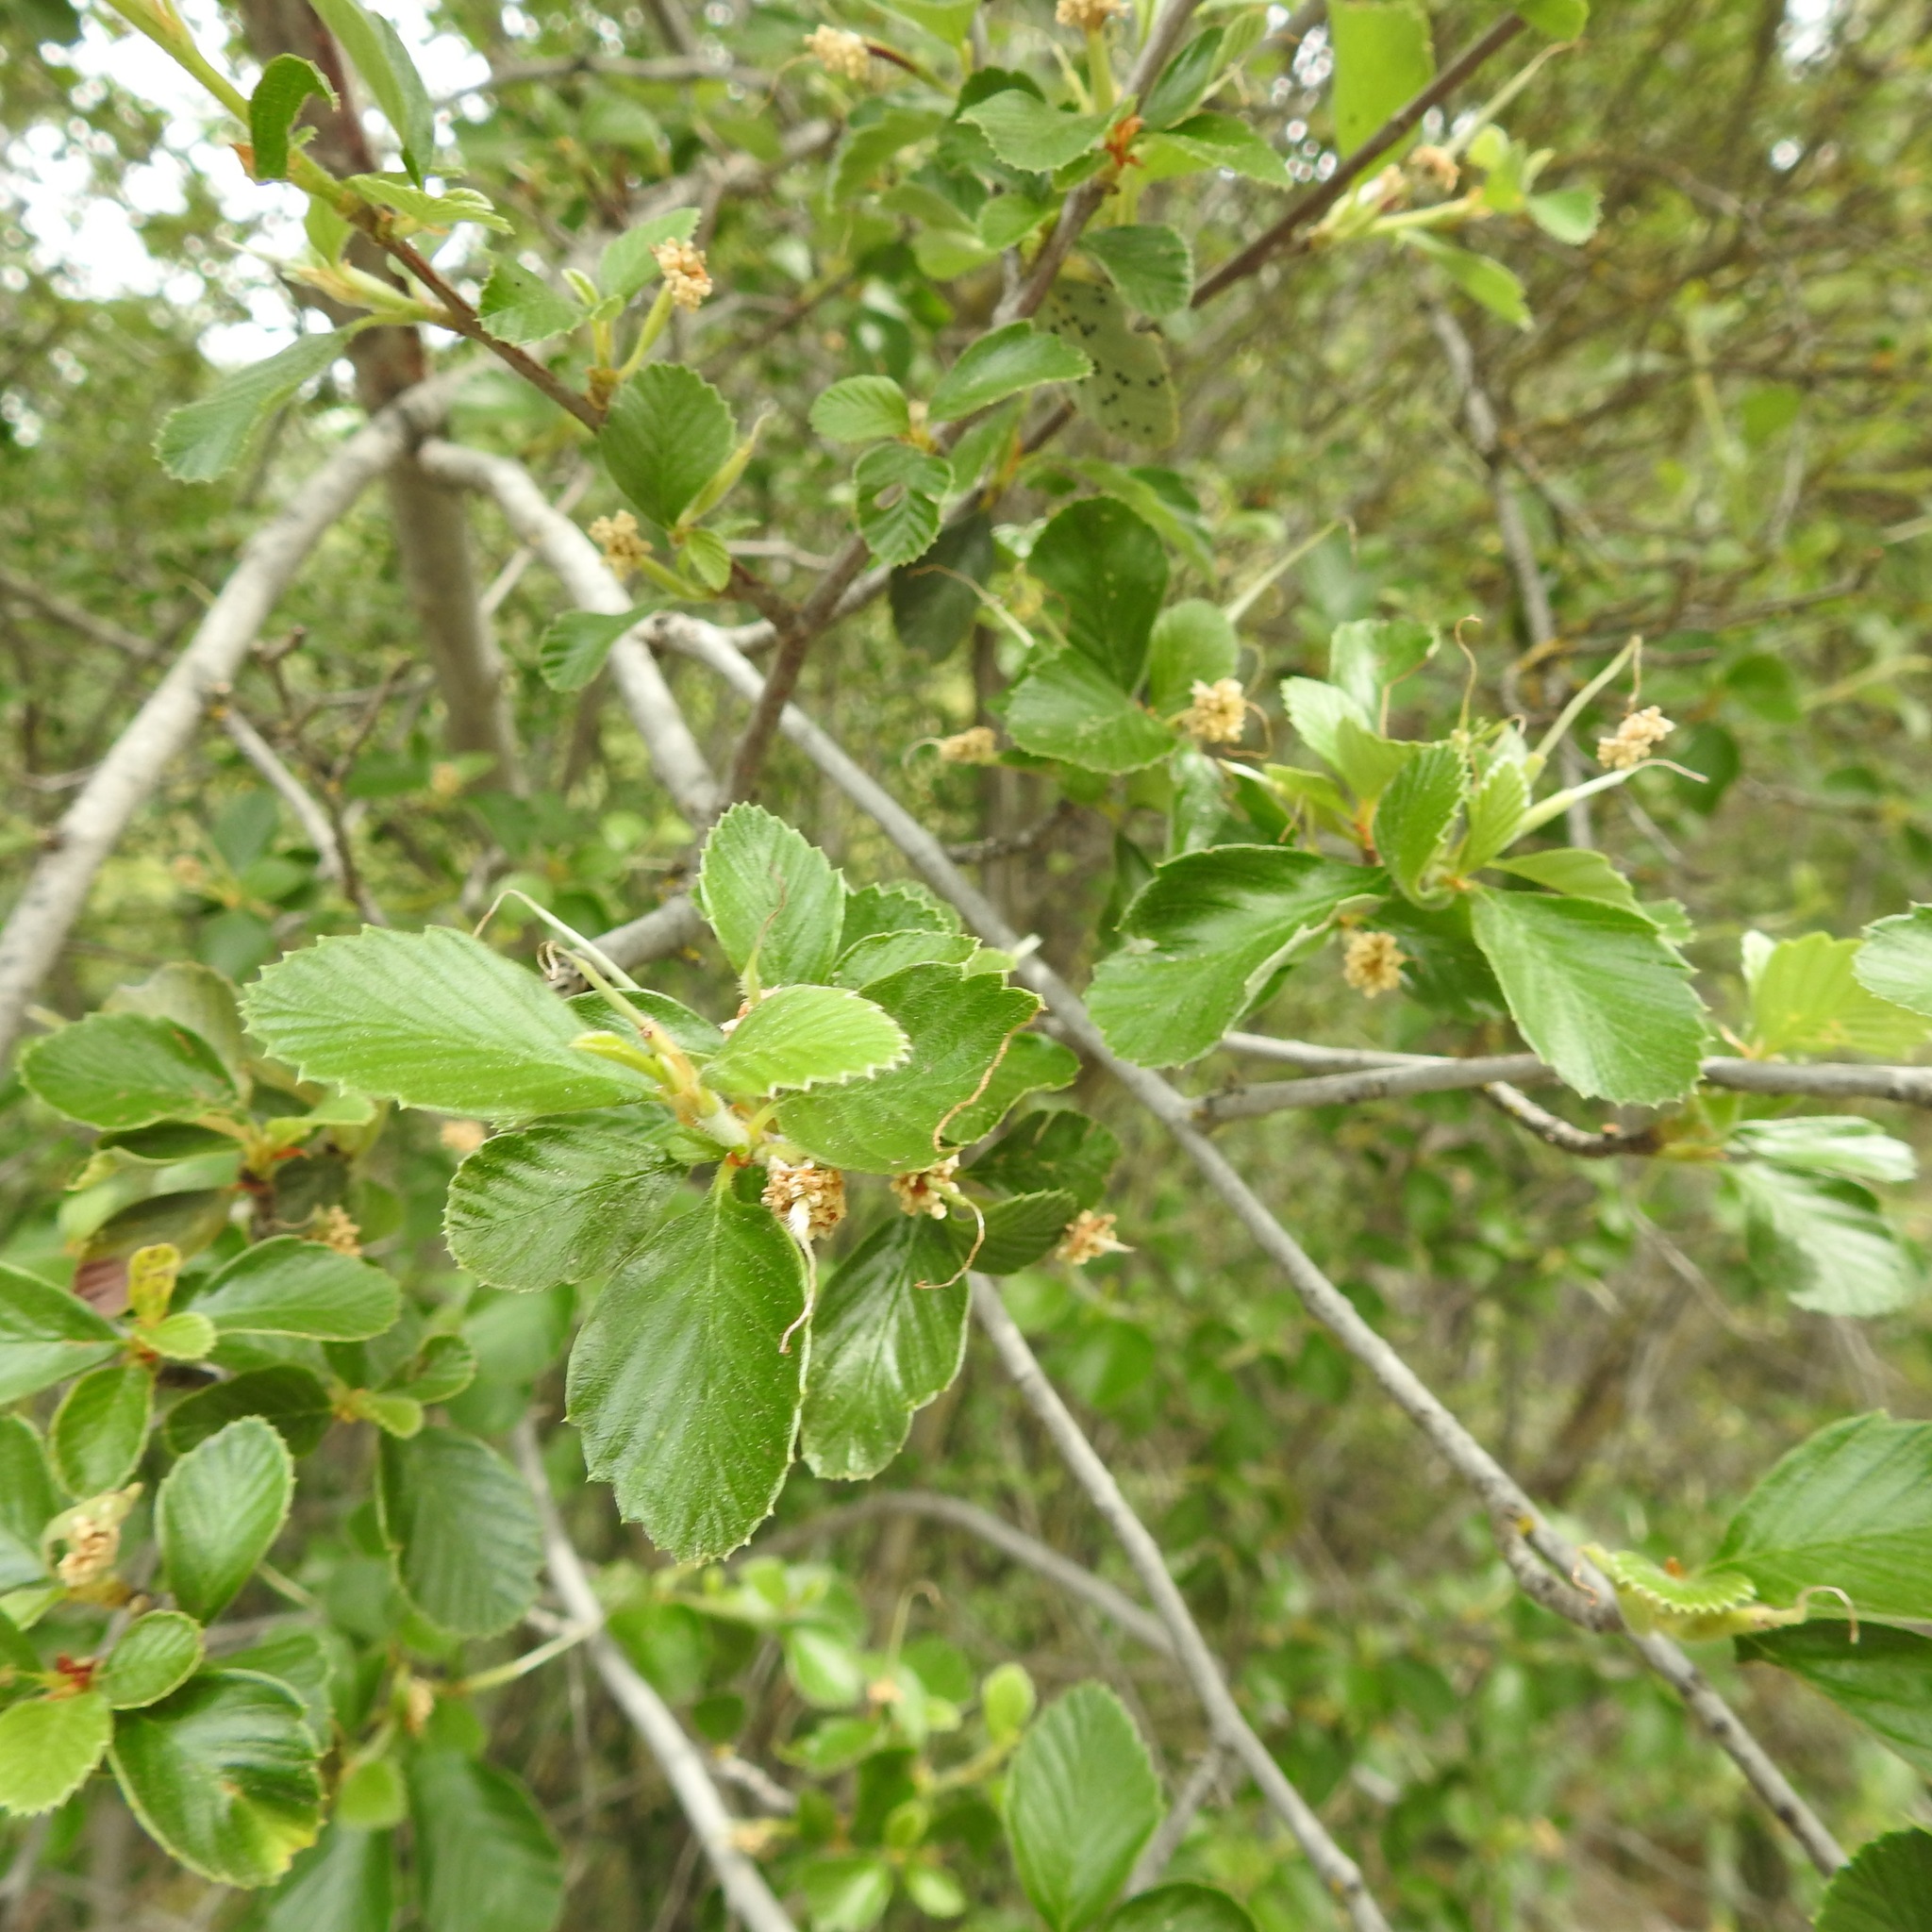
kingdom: Plantae
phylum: Tracheophyta
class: Magnoliopsida
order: Rosales
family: Rosaceae
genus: Cercocarpus
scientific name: Cercocarpus betuloides
